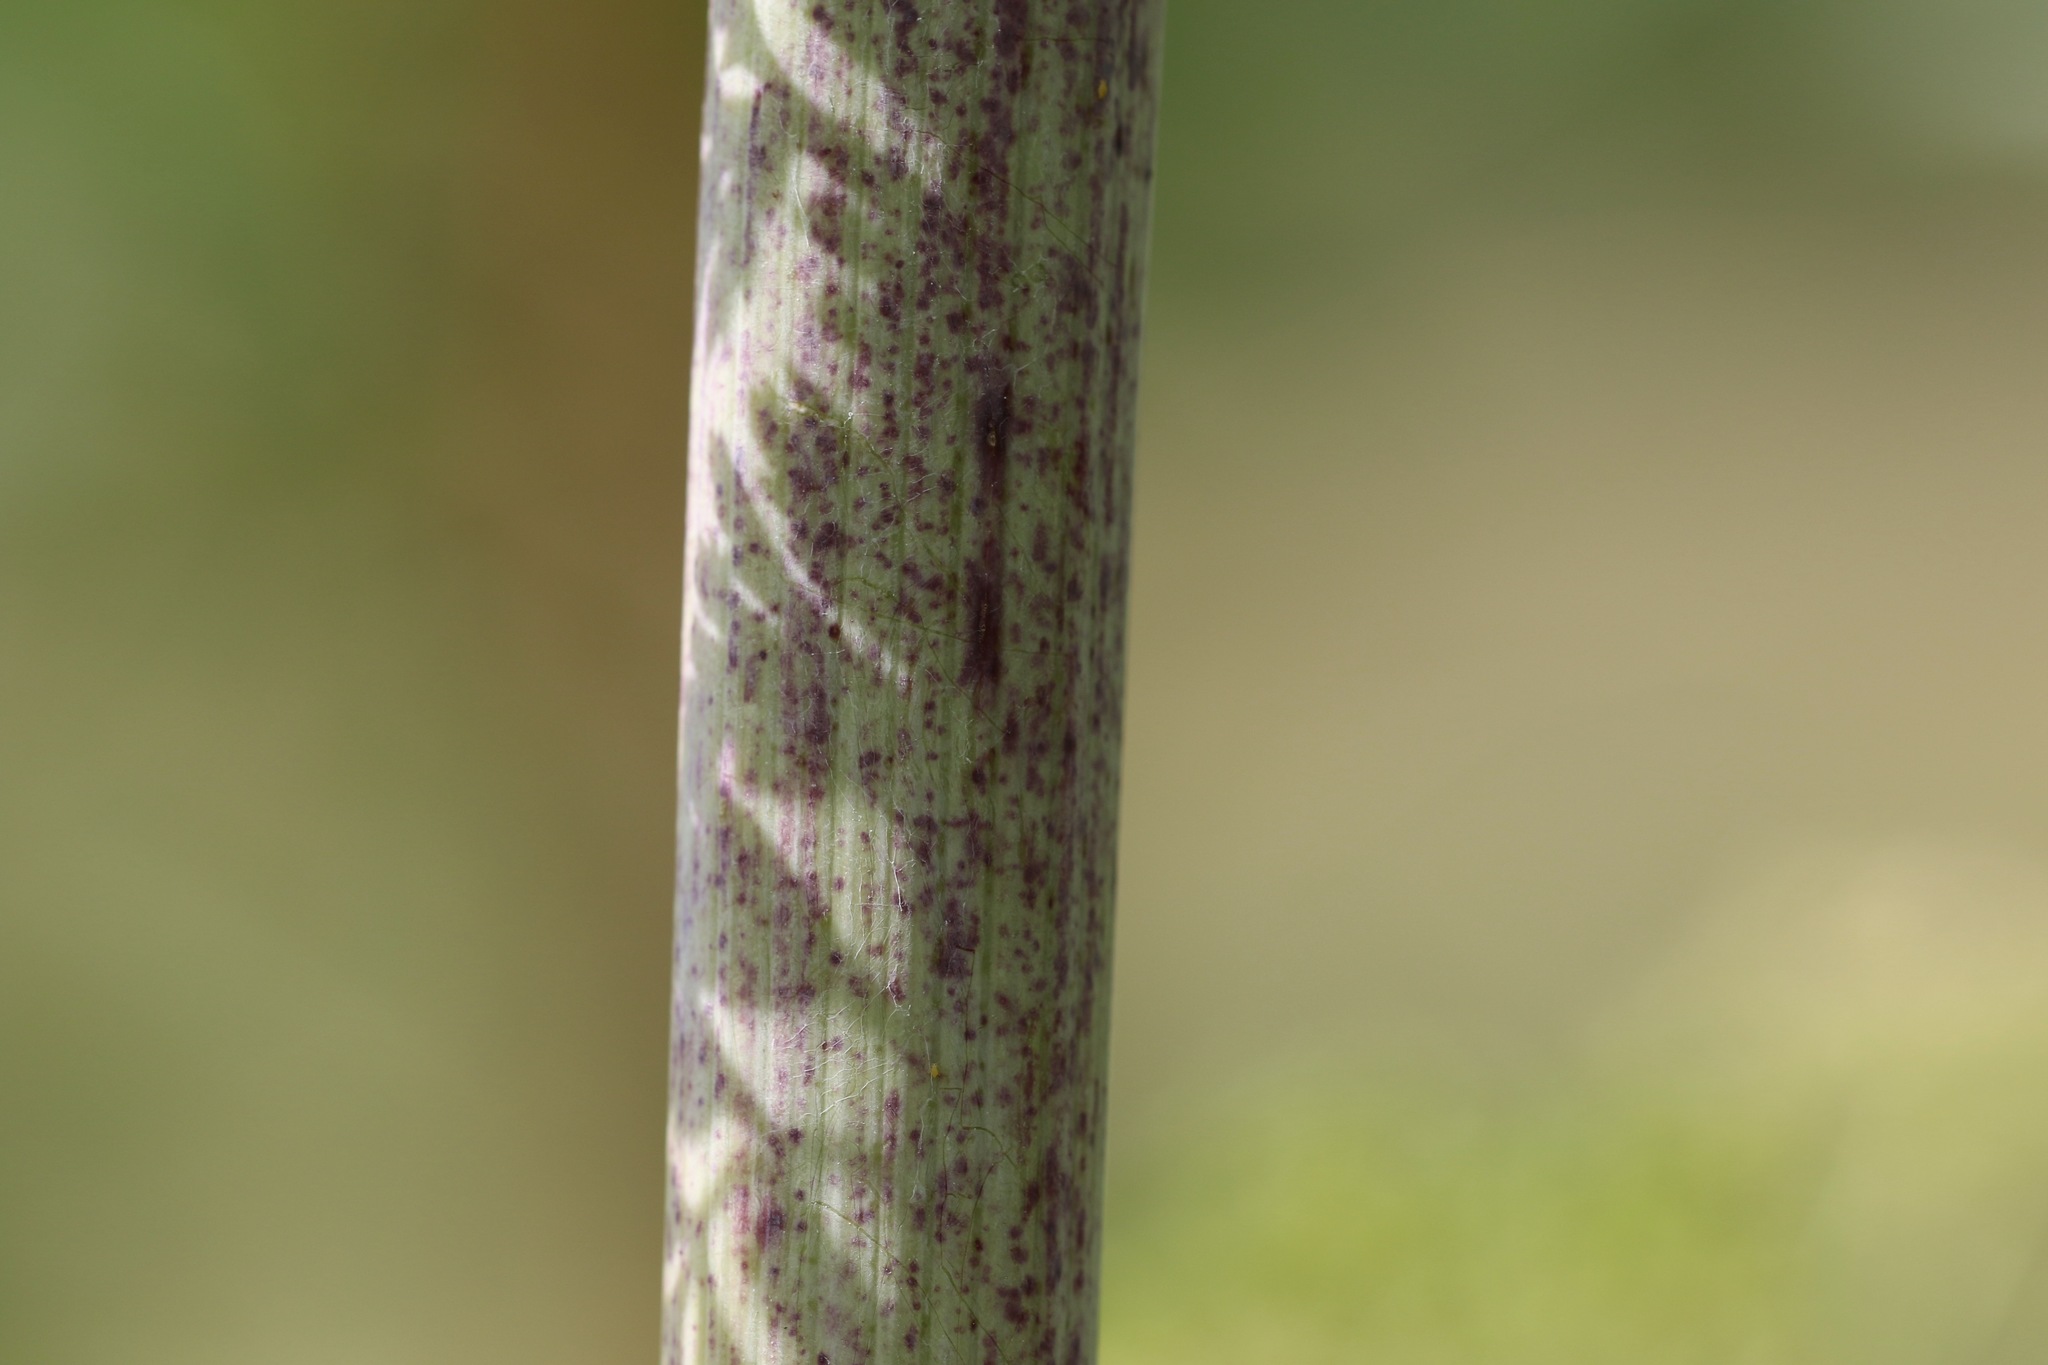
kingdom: Plantae
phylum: Tracheophyta
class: Magnoliopsida
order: Apiales
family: Apiaceae
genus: Conium
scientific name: Conium maculatum
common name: Hemlock
